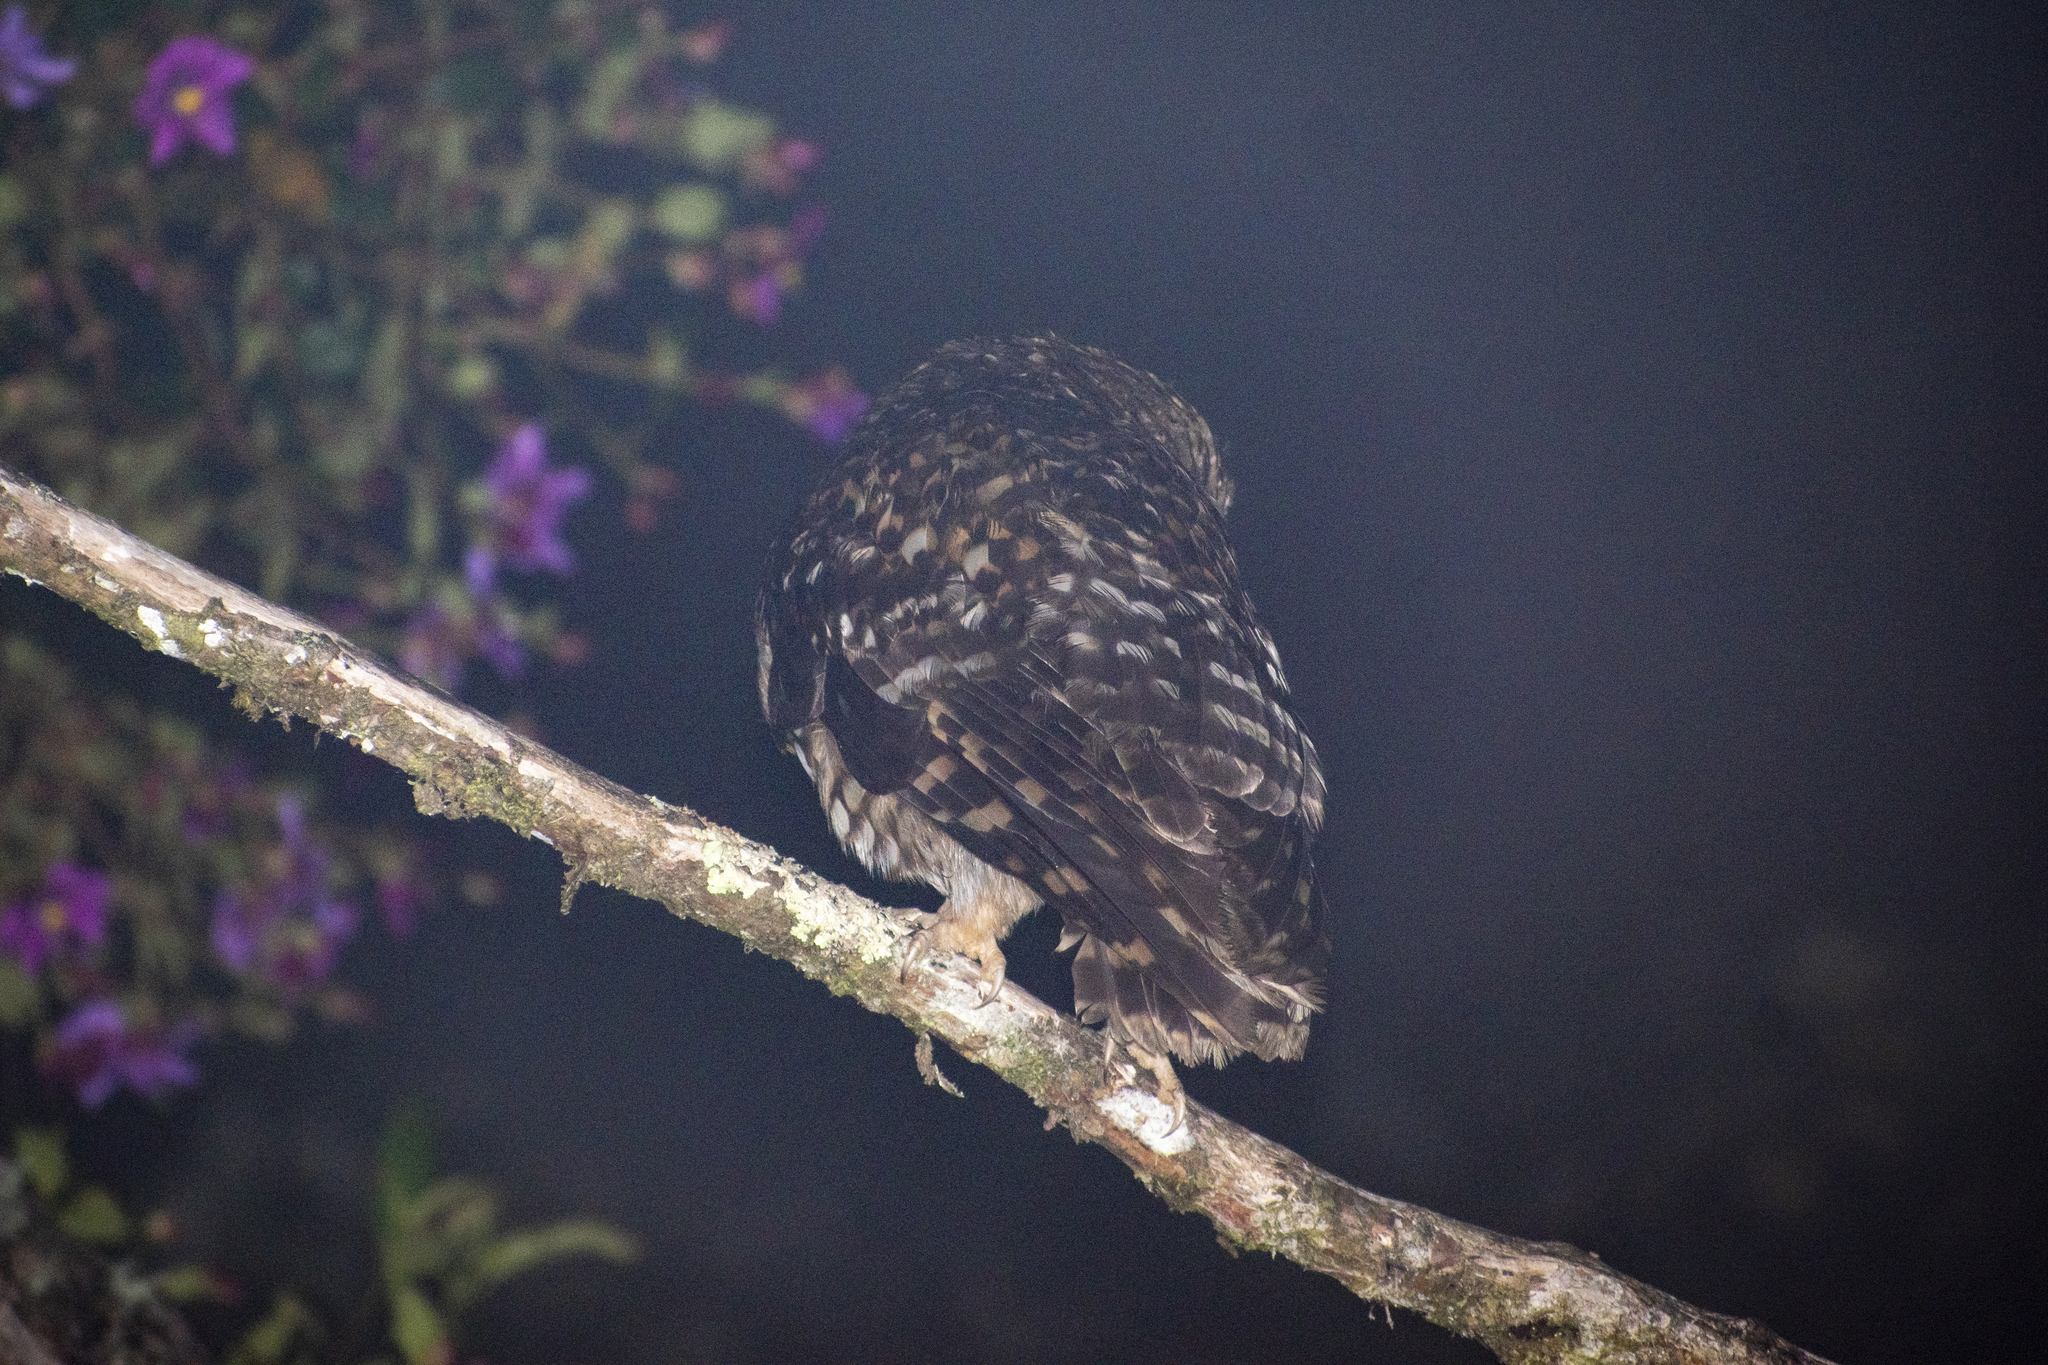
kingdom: Animalia
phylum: Chordata
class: Aves
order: Strigiformes
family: Strigidae
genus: Strix
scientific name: Strix albitarsis
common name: Rufous-banded owl
